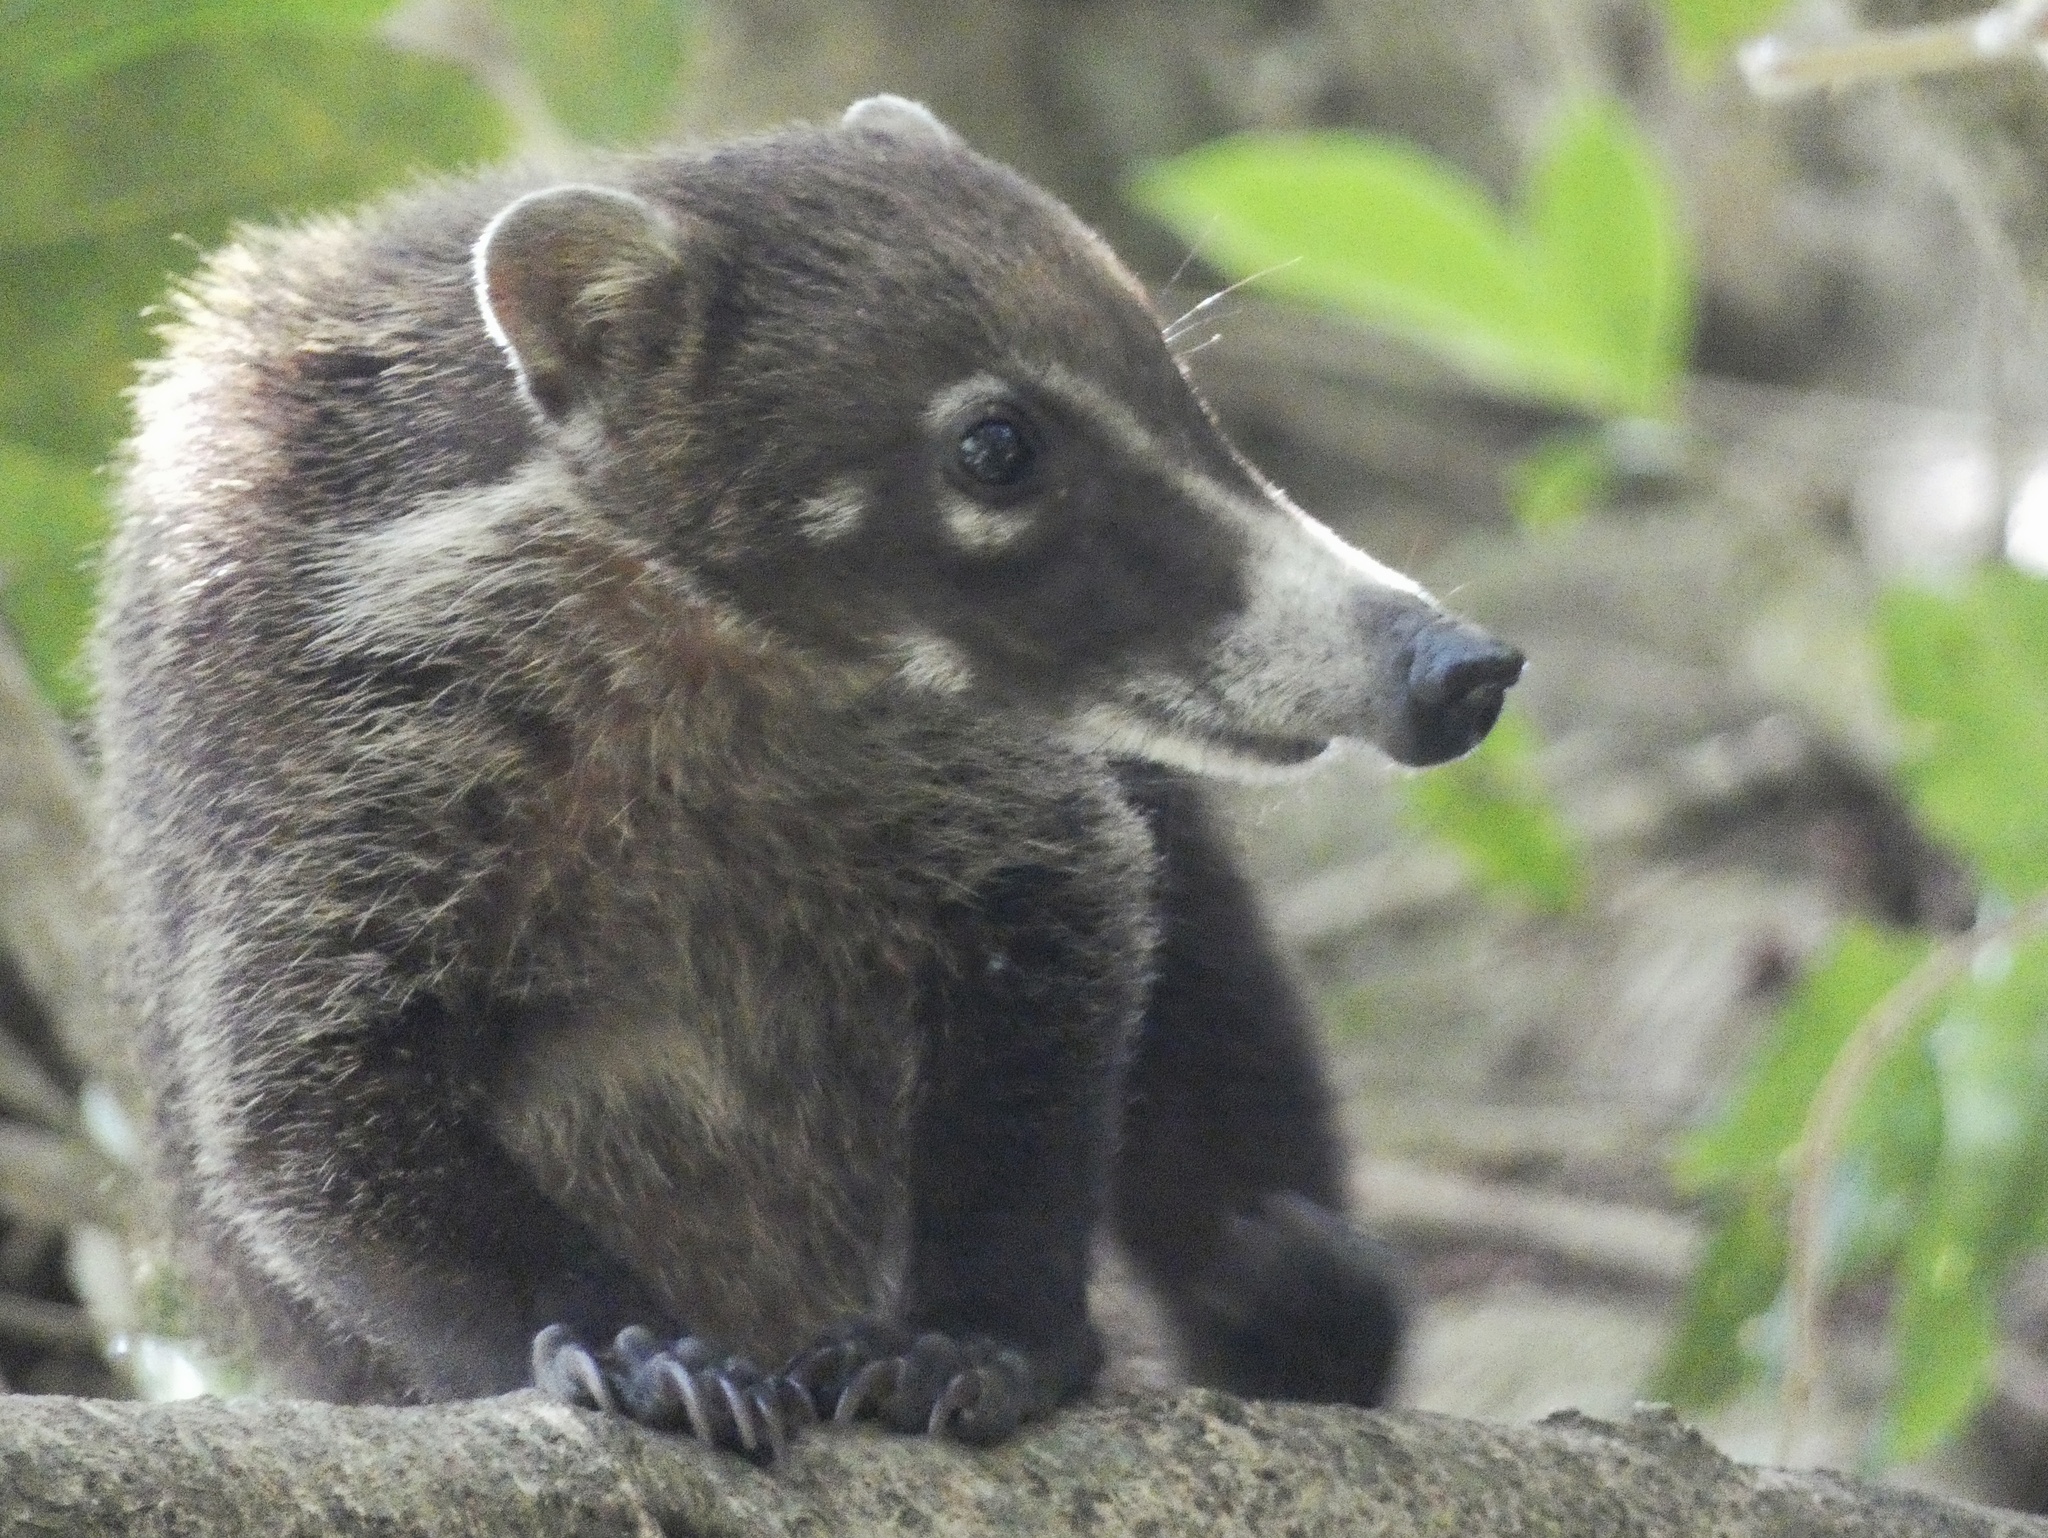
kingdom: Animalia
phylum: Chordata
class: Mammalia
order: Carnivora
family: Procyonidae
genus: Nasua
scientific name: Nasua narica
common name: White-nosed coati
